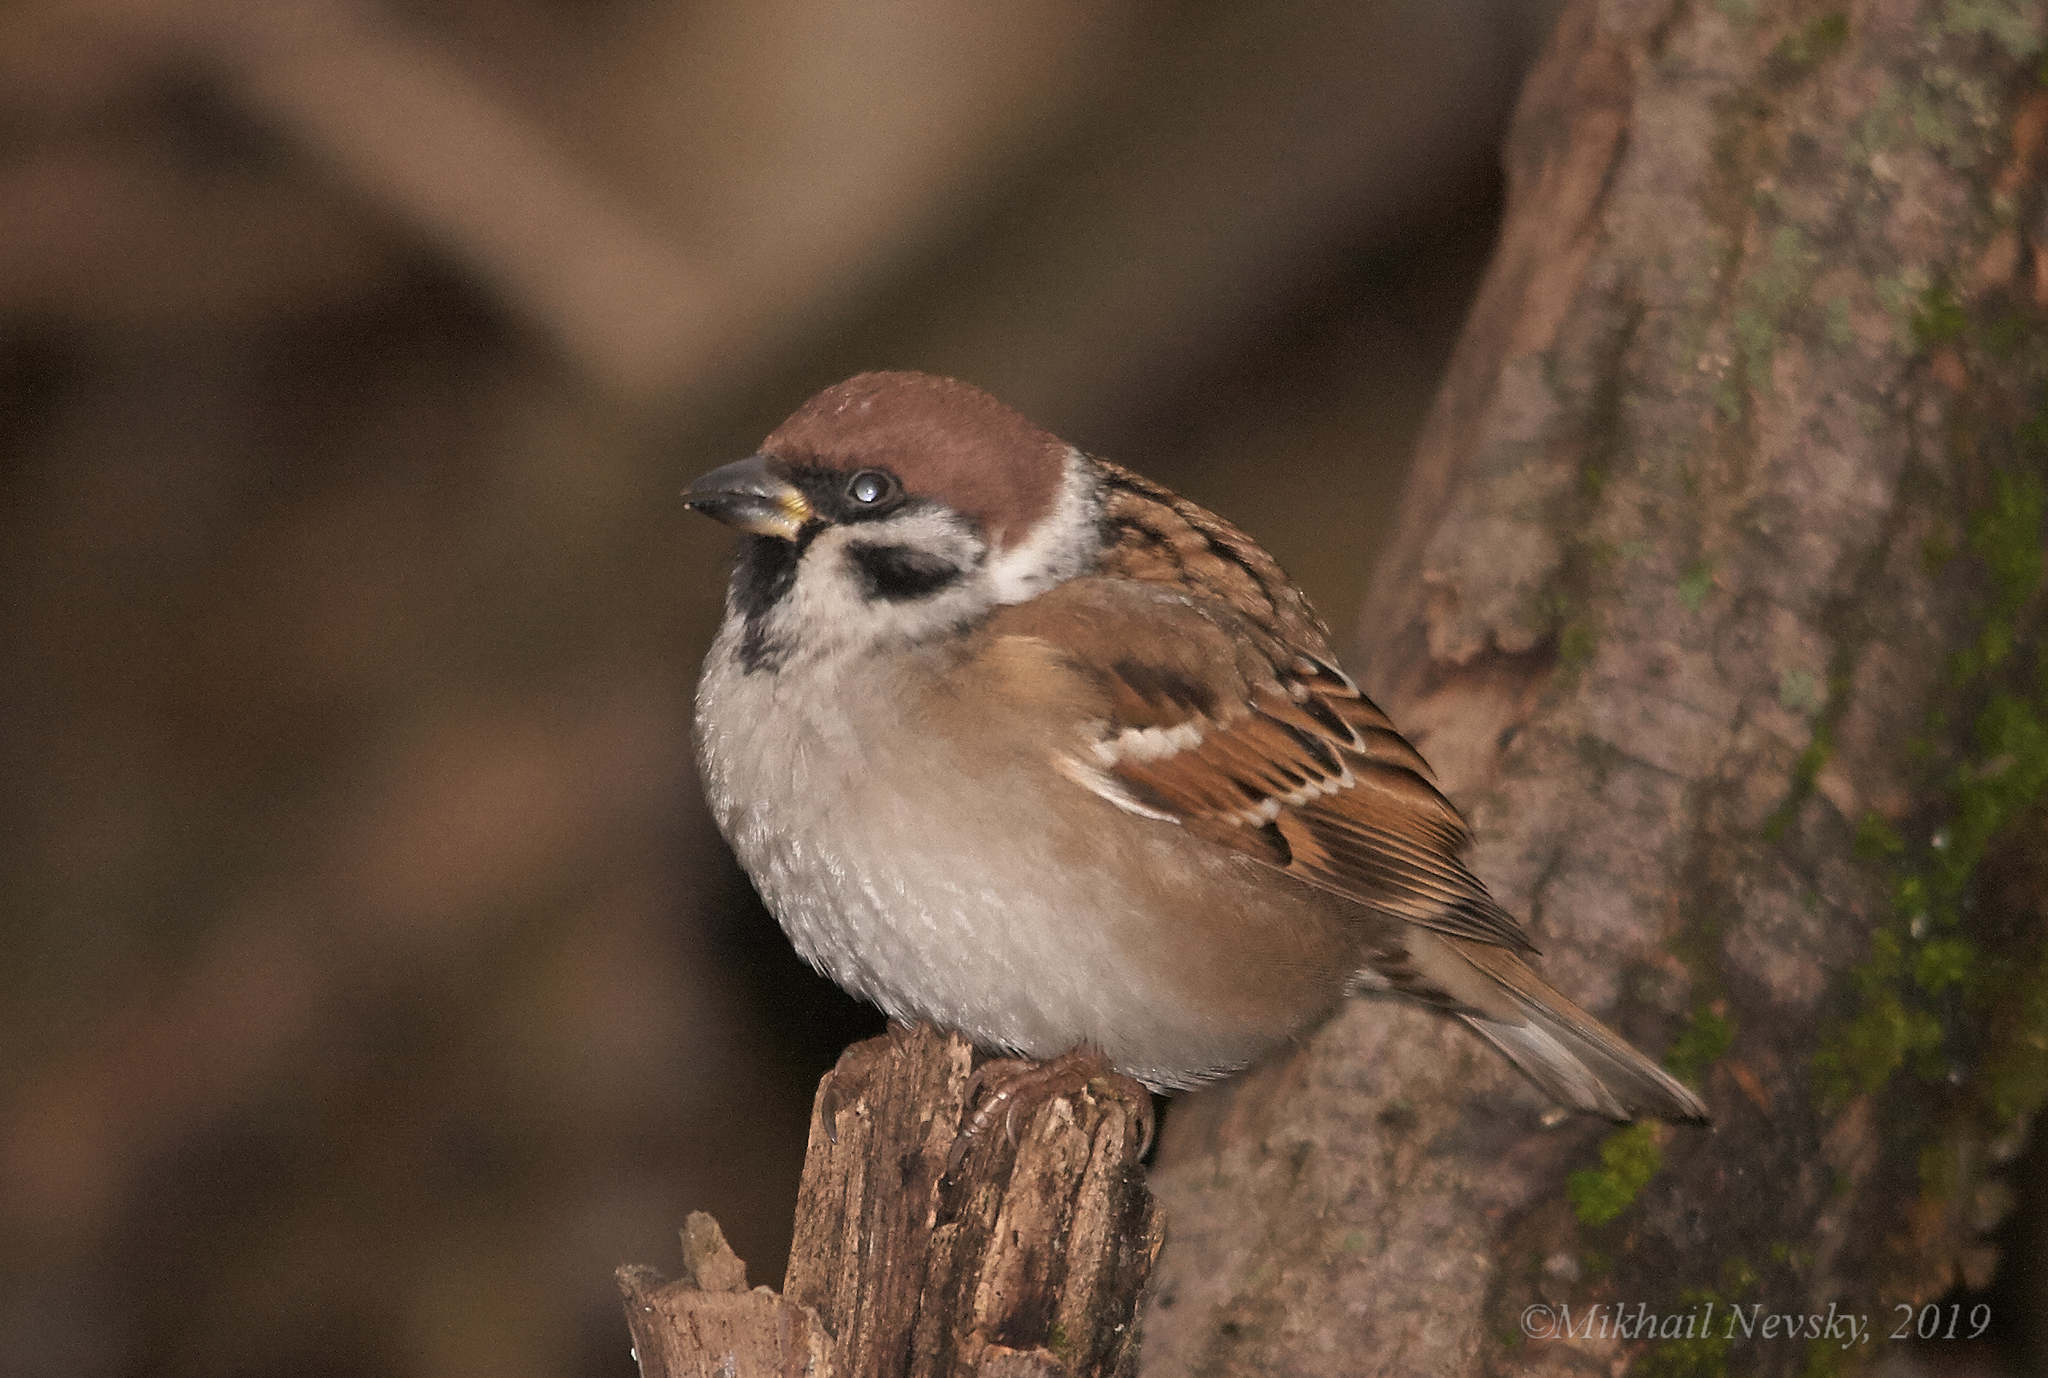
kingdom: Animalia
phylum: Chordata
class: Aves
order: Passeriformes
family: Passeridae
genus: Passer
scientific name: Passer montanus
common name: Eurasian tree sparrow
